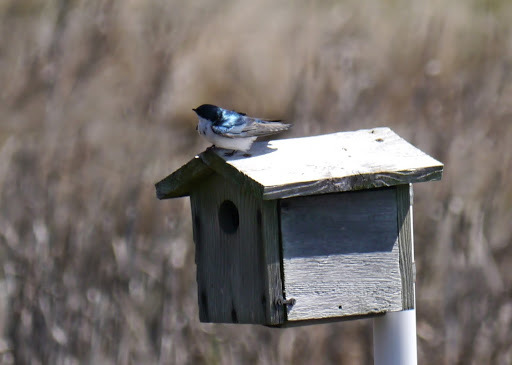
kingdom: Animalia
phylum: Chordata
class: Aves
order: Passeriformes
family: Hirundinidae
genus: Tachycineta
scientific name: Tachycineta bicolor
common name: Tree swallow
